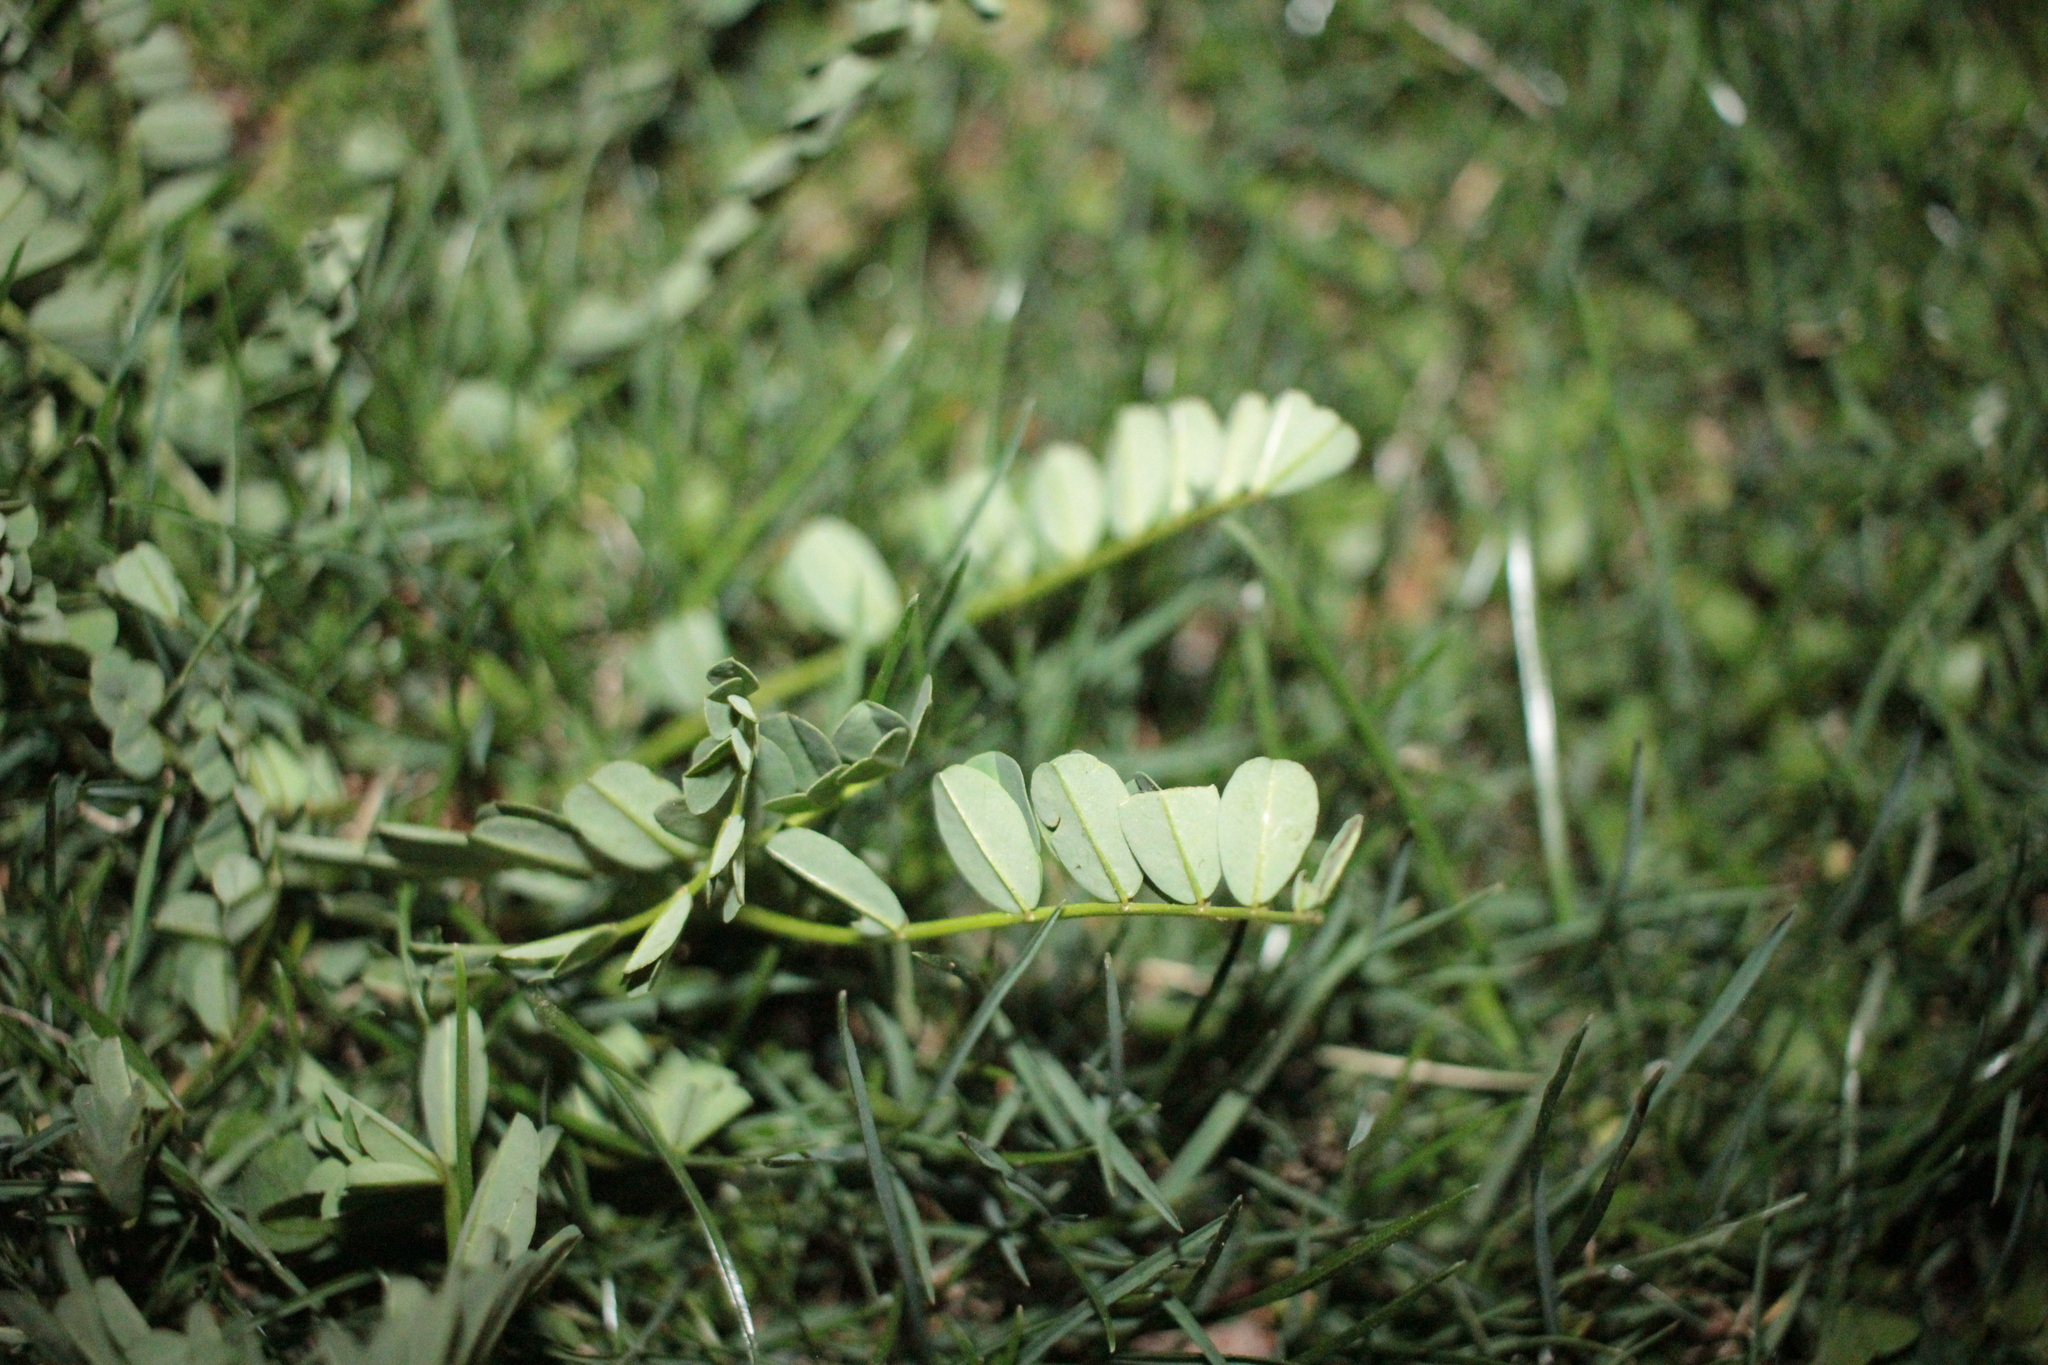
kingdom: Plantae
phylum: Tracheophyta
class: Magnoliopsida
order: Fabales
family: Fabaceae
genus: Coronilla
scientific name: Coronilla varia
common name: Crownvetch
